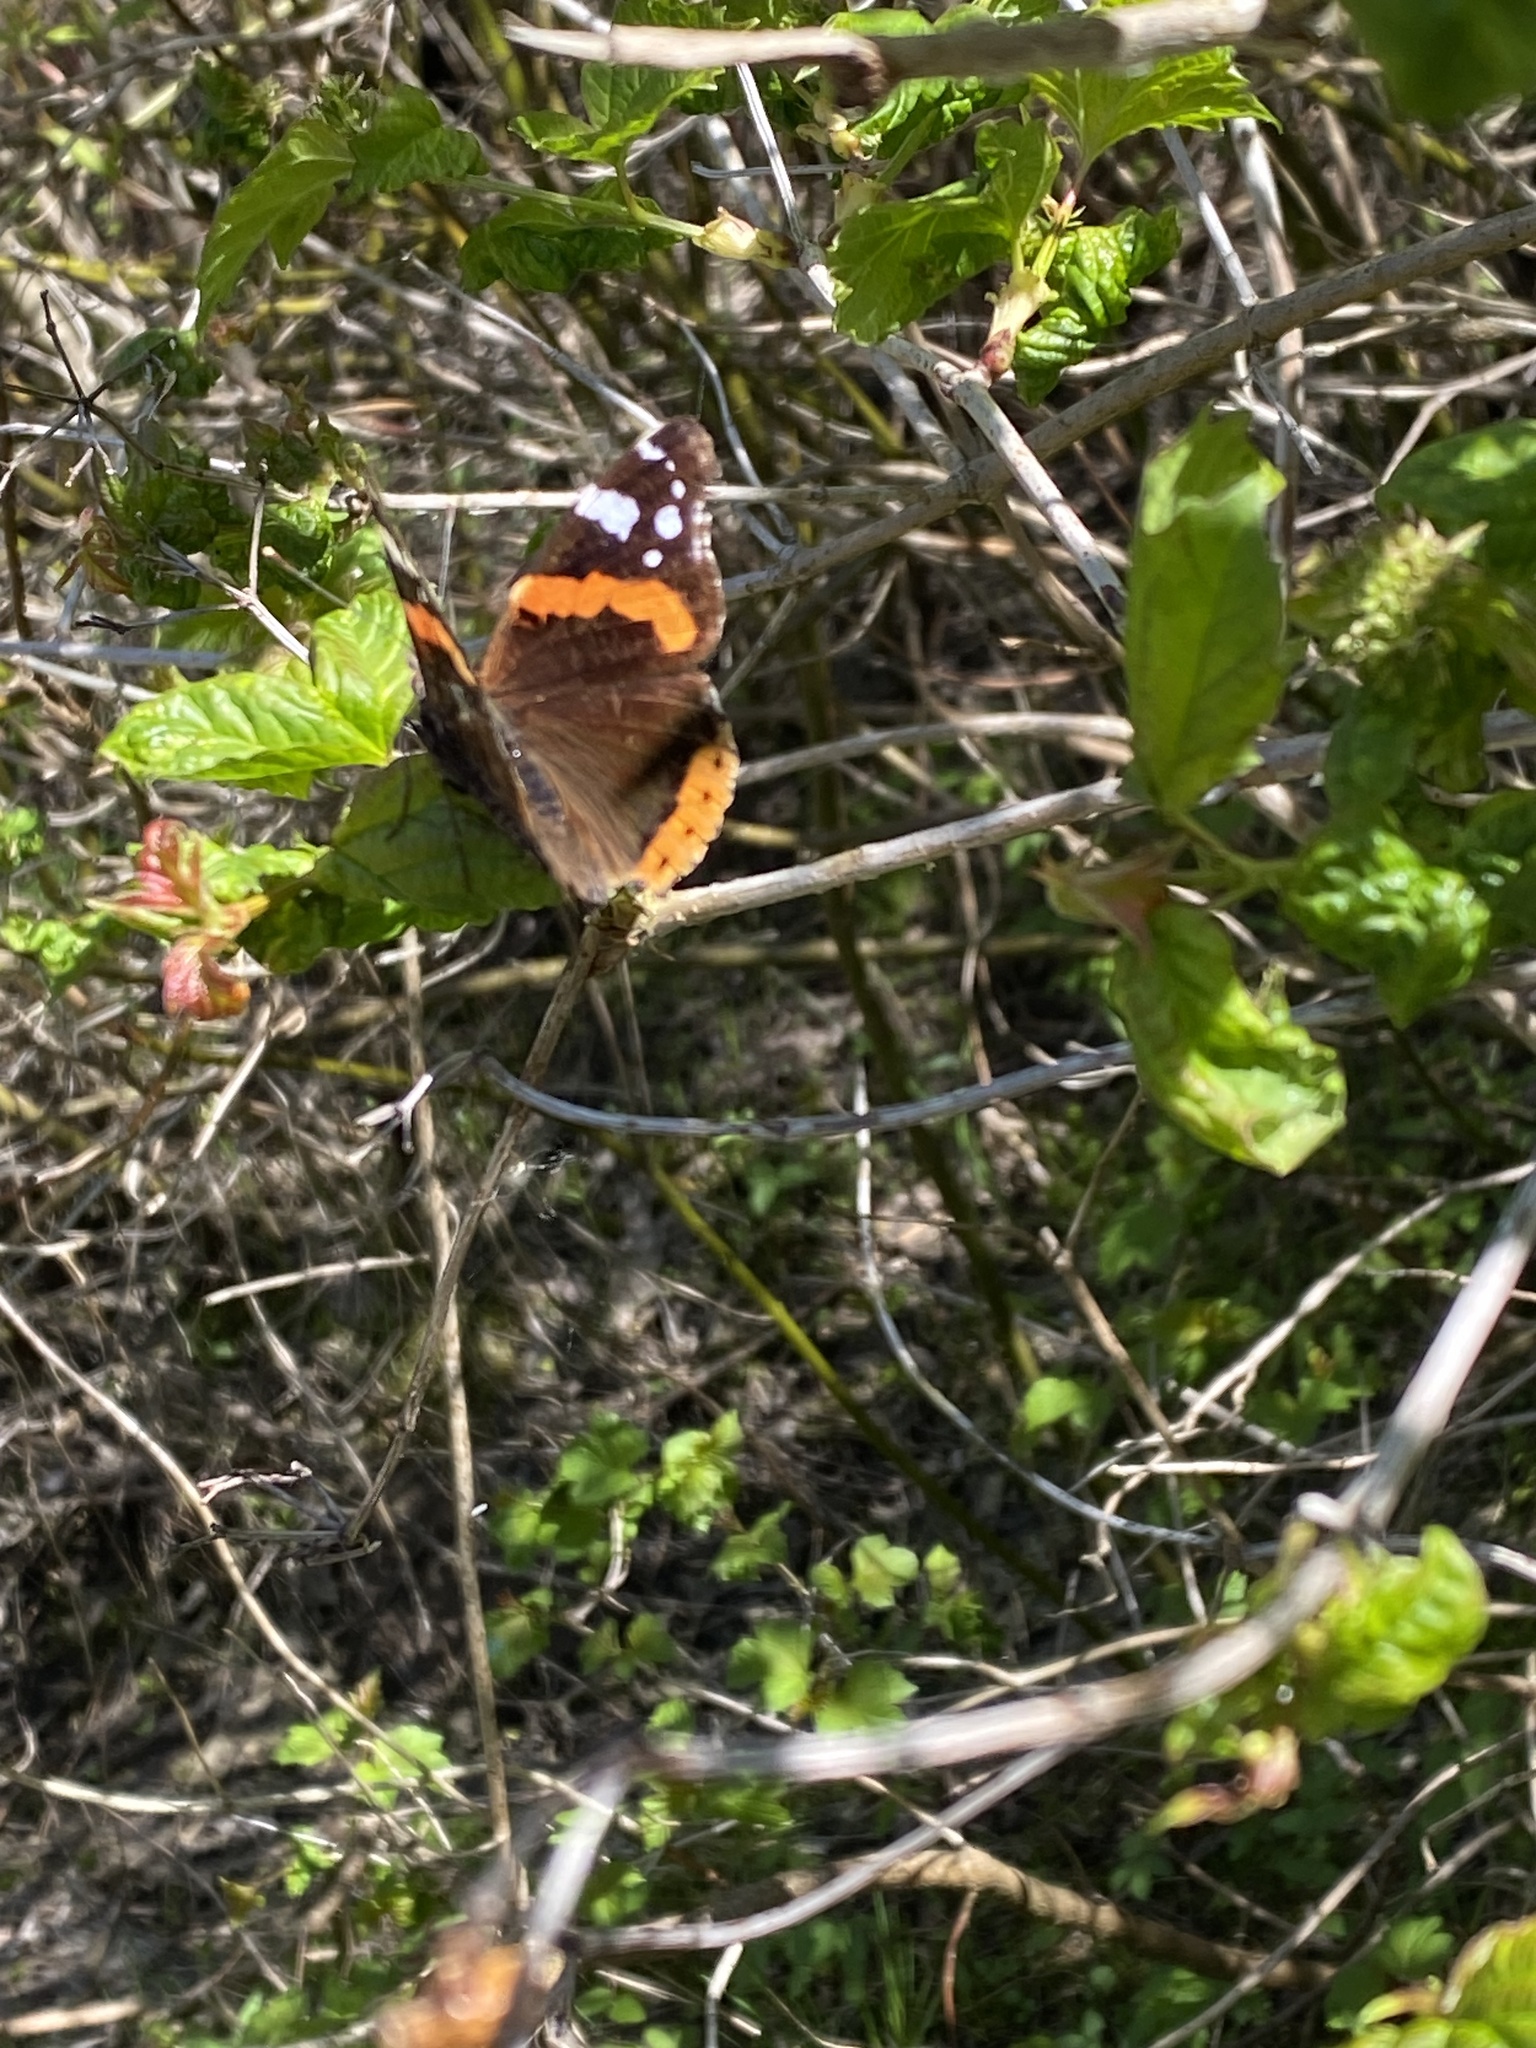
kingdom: Animalia
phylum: Arthropoda
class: Insecta
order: Lepidoptera
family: Nymphalidae
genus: Vanessa
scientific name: Vanessa atalanta
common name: Red admiral
